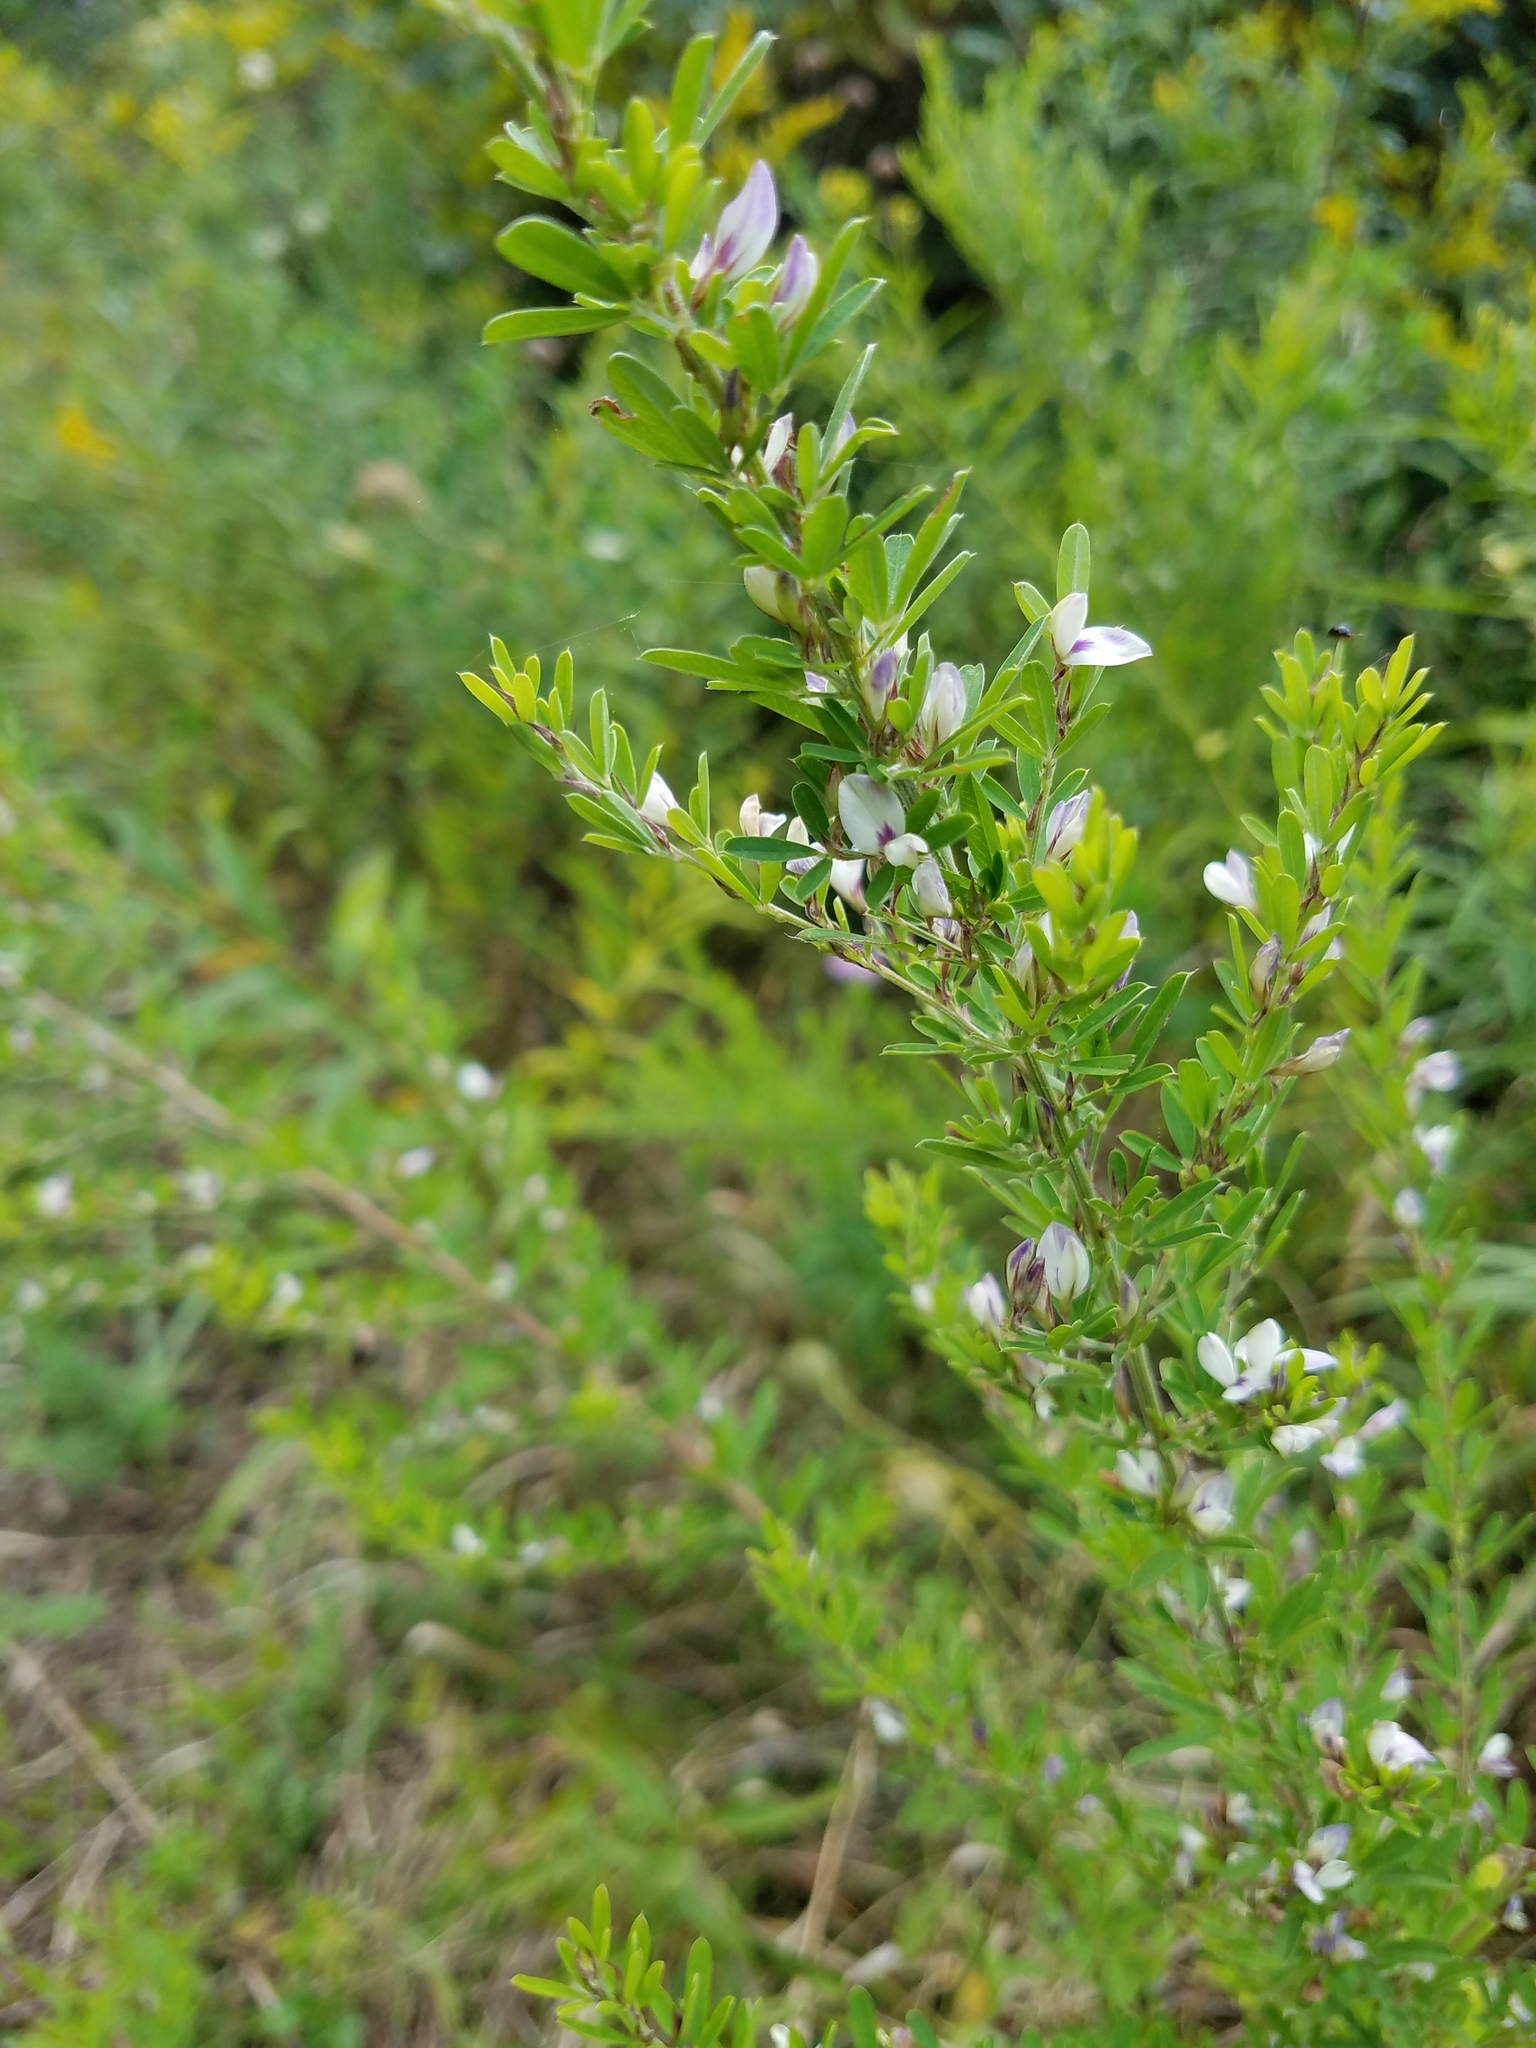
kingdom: Plantae
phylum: Tracheophyta
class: Magnoliopsida
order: Fabales
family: Fabaceae
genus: Lespedeza
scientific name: Lespedeza cuneata
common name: Chinese bush-clover
